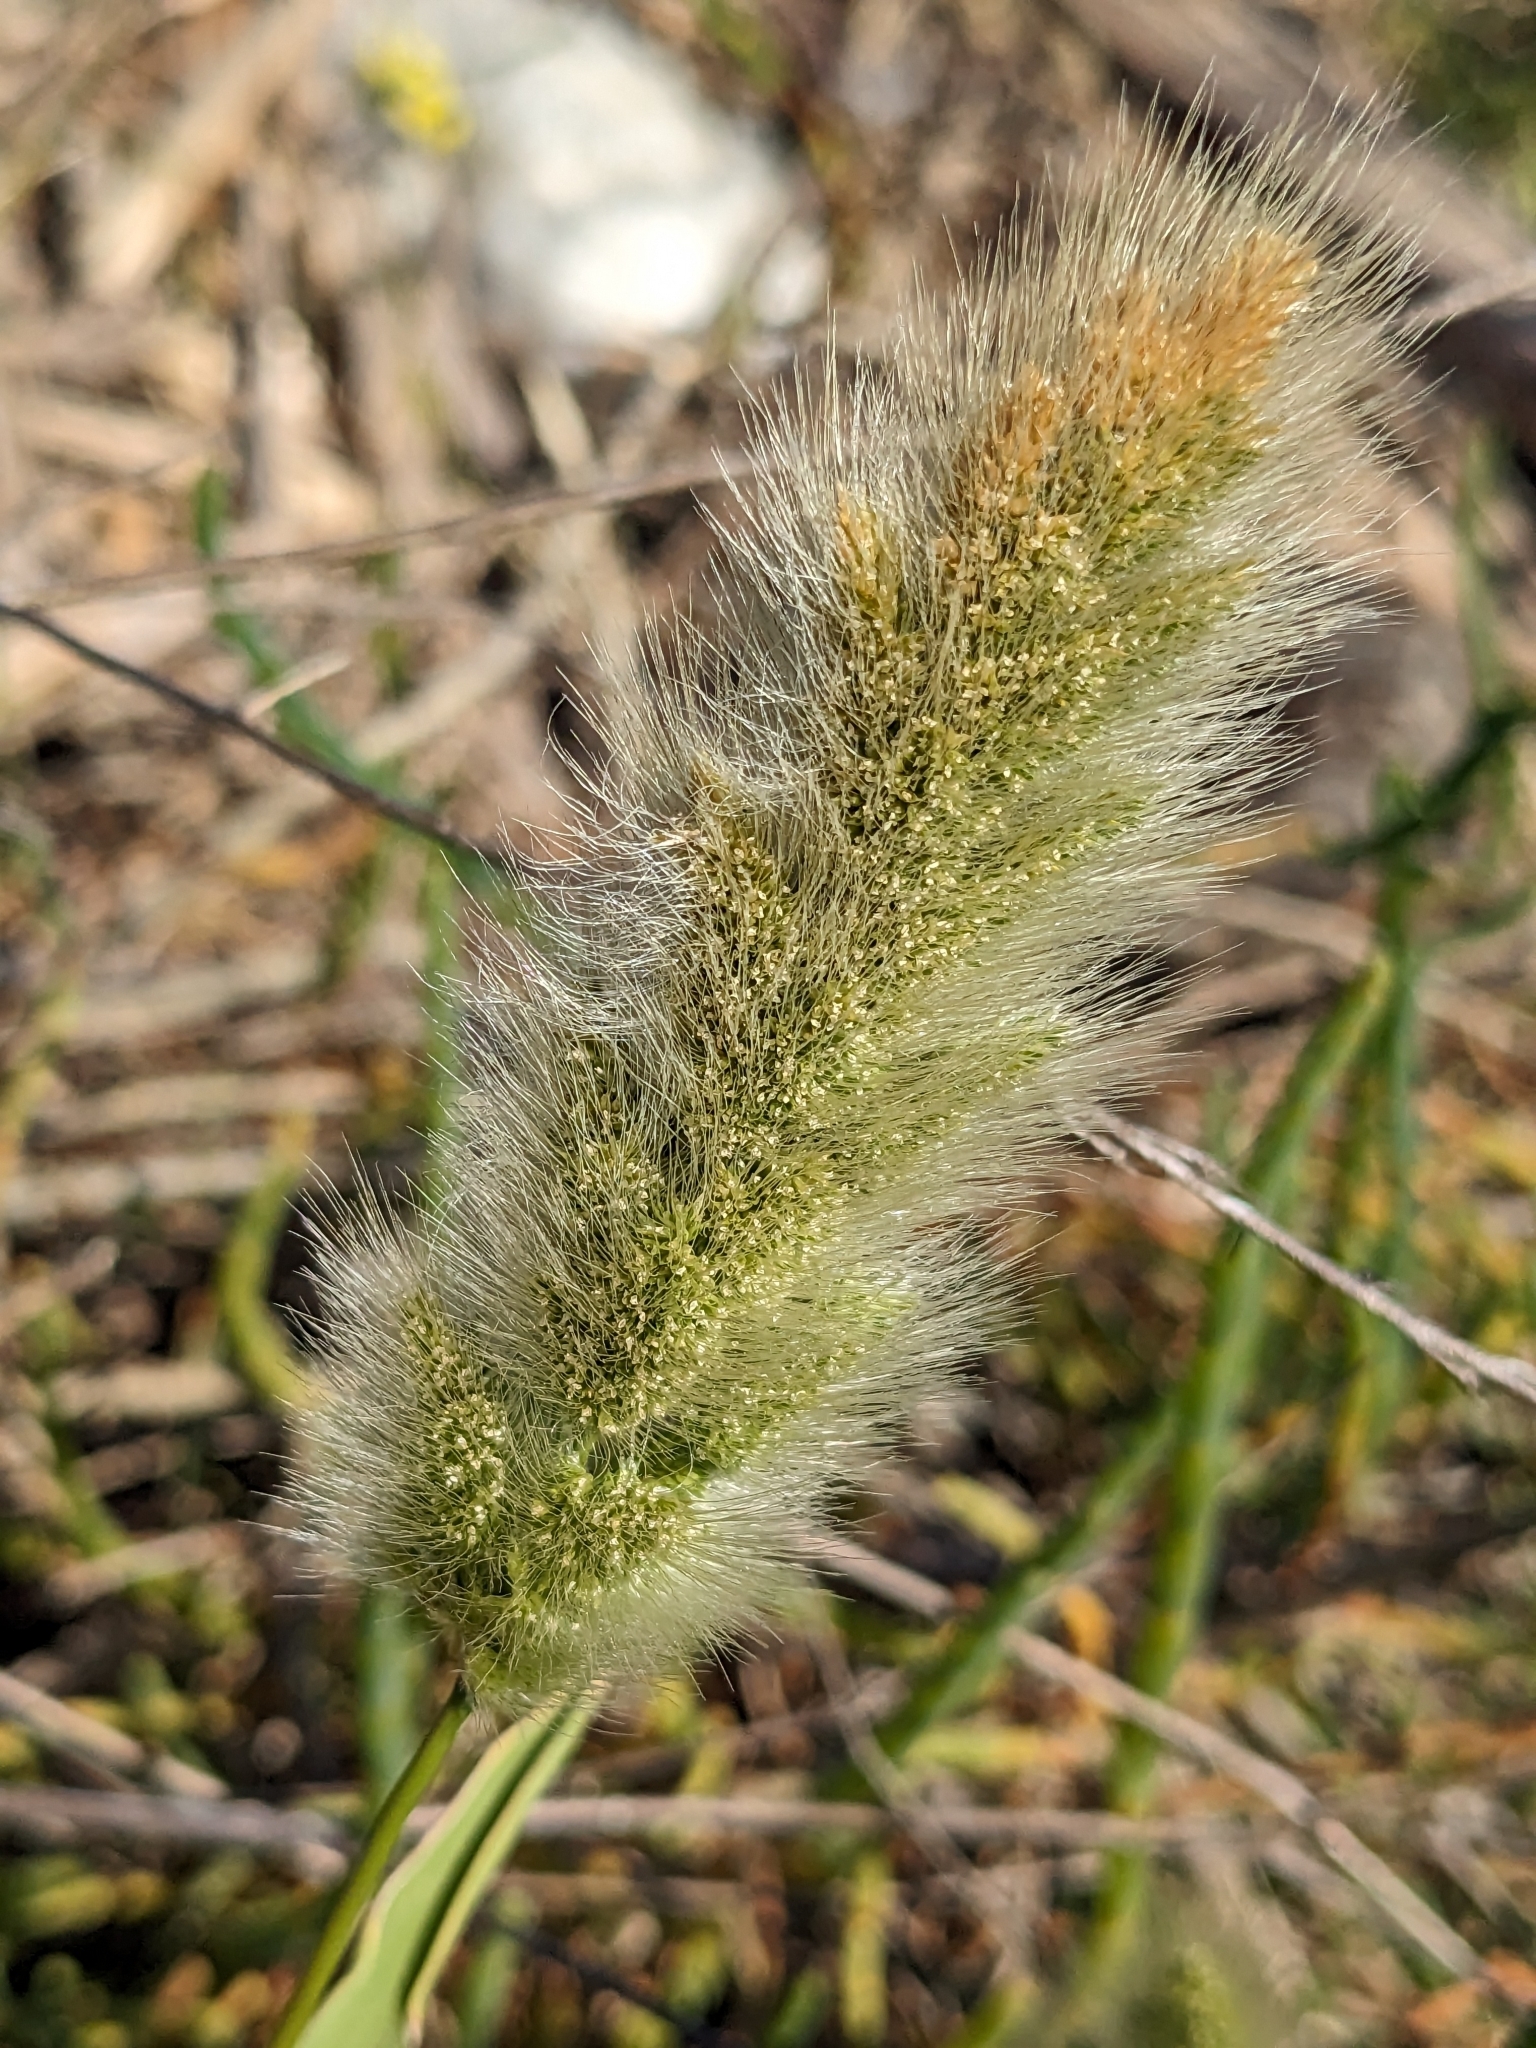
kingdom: Plantae
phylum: Tracheophyta
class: Liliopsida
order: Poales
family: Poaceae
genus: Polypogon
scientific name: Polypogon monspeliensis
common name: Annual rabbitsfoot grass
